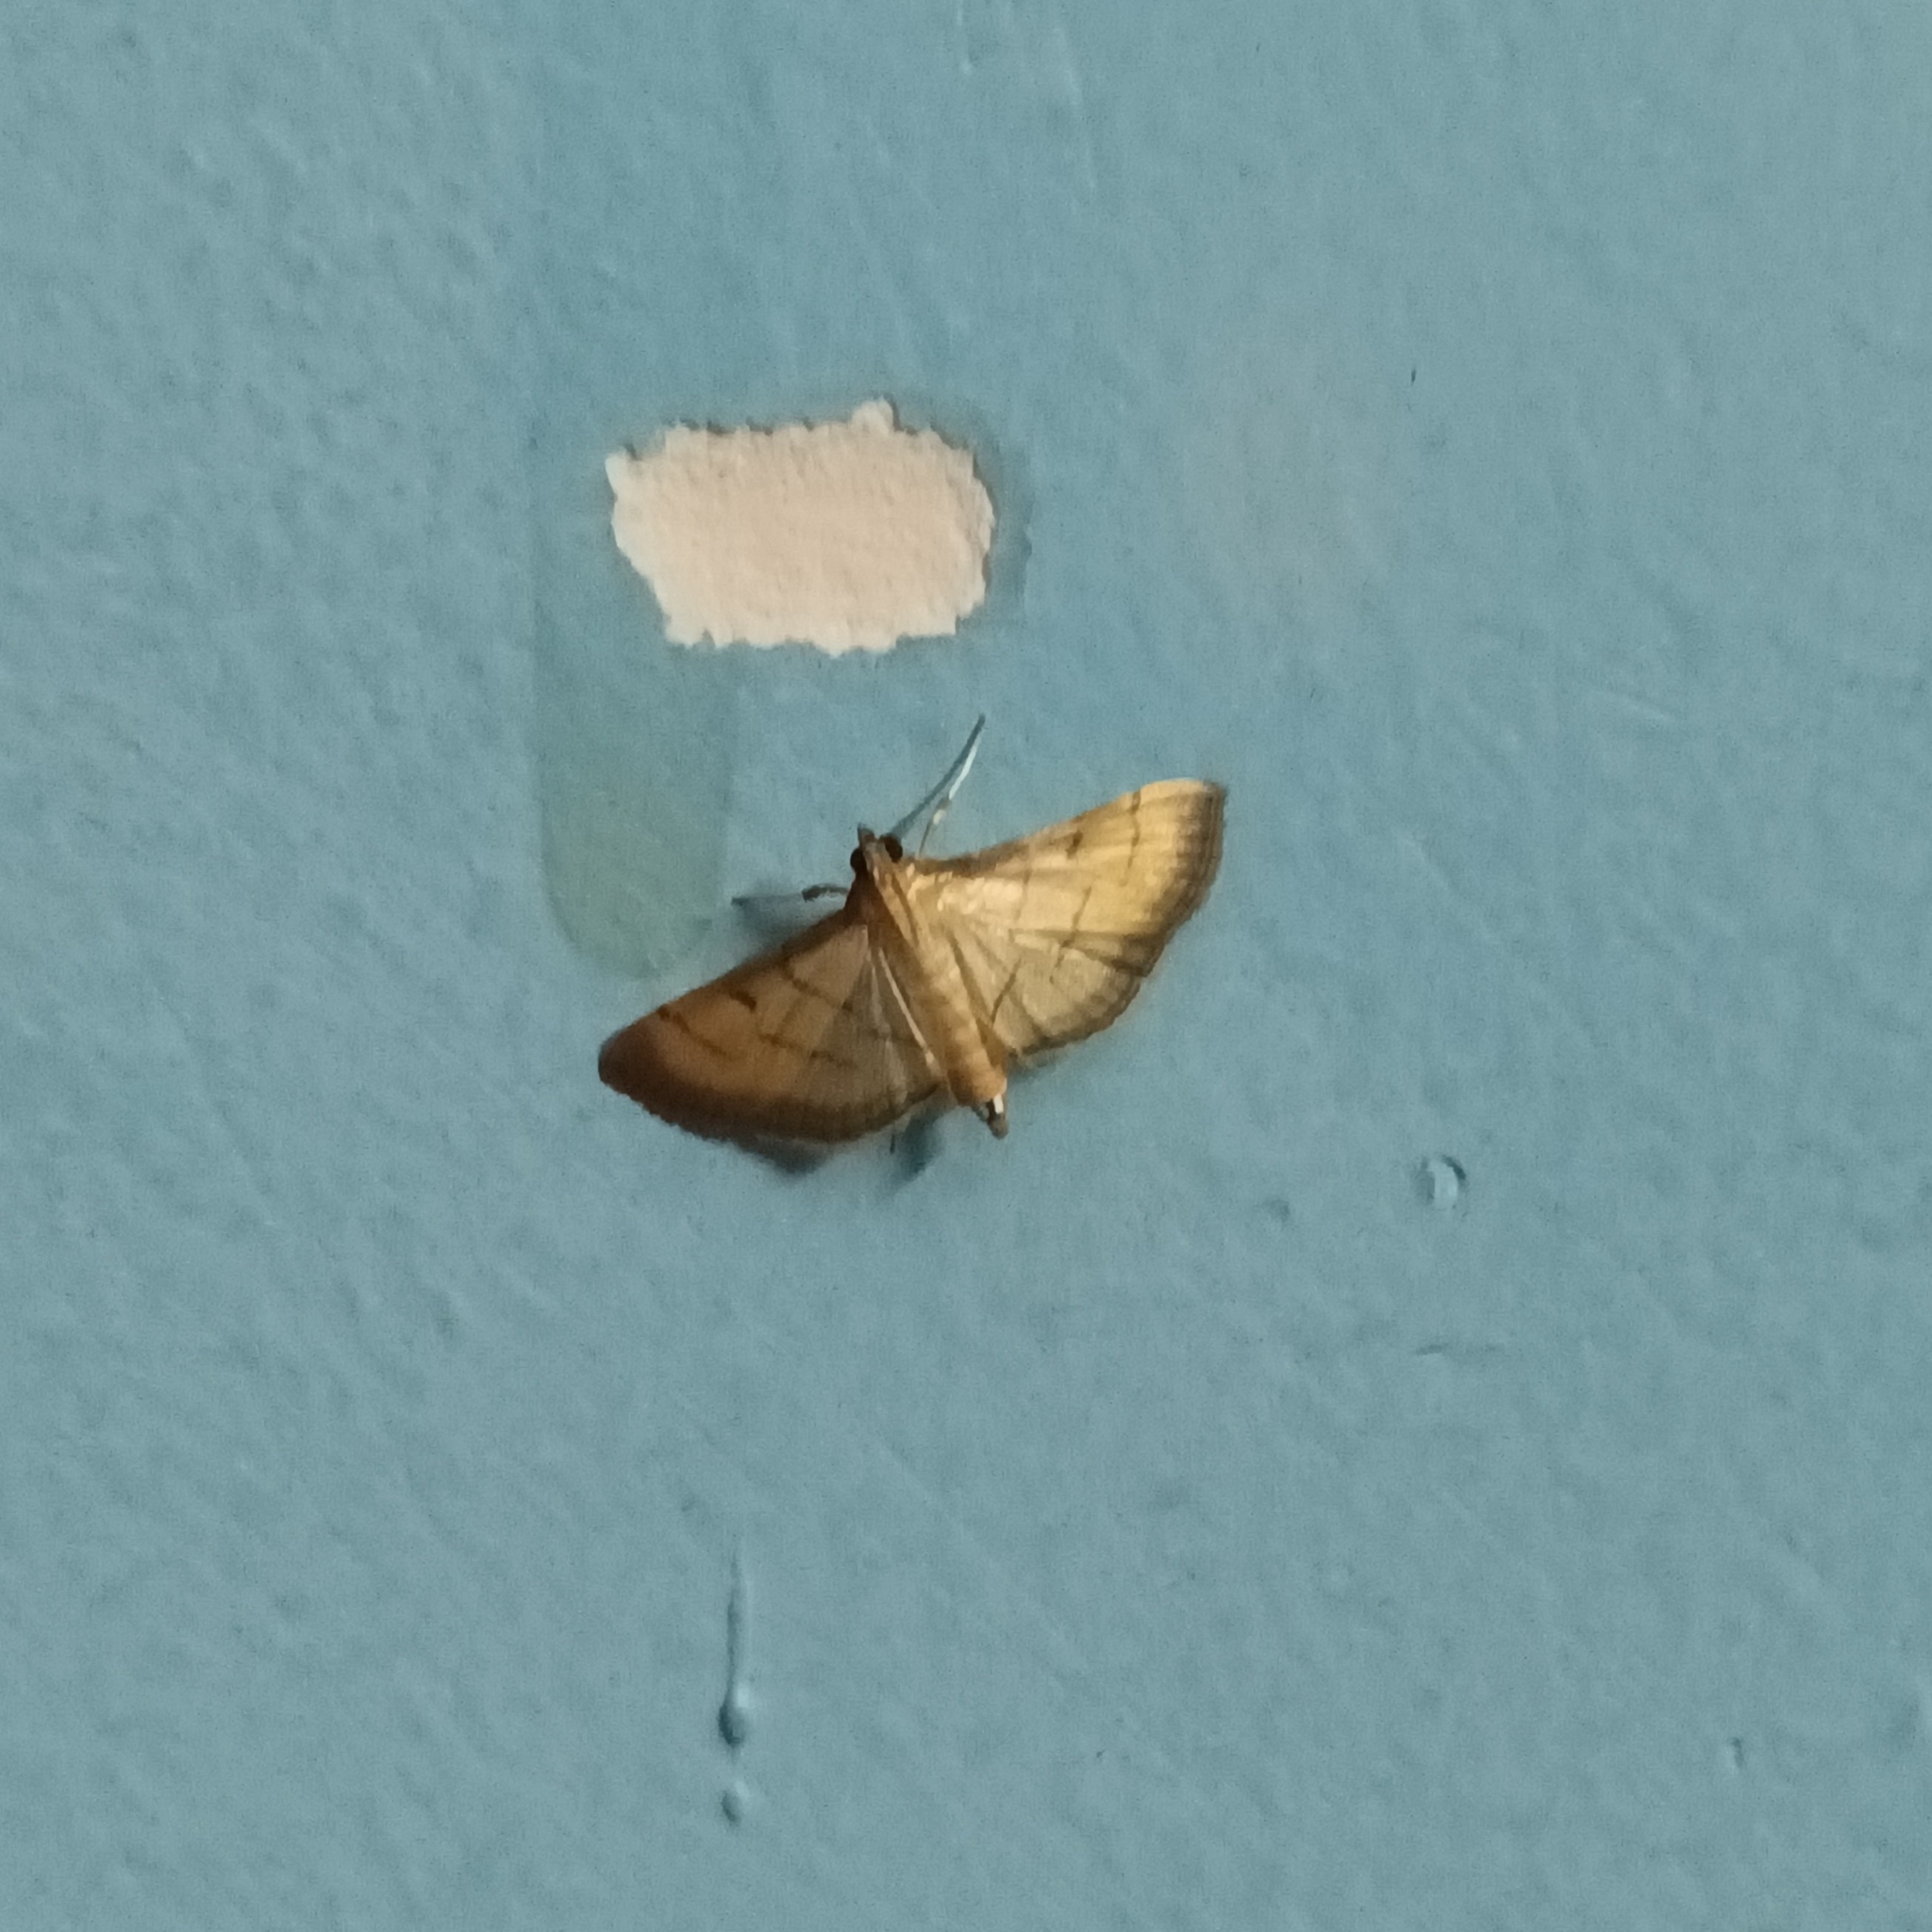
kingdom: Animalia
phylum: Arthropoda
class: Insecta
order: Lepidoptera
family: Crambidae
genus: Cnaphalocrocis
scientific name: Cnaphalocrocis patnalis
